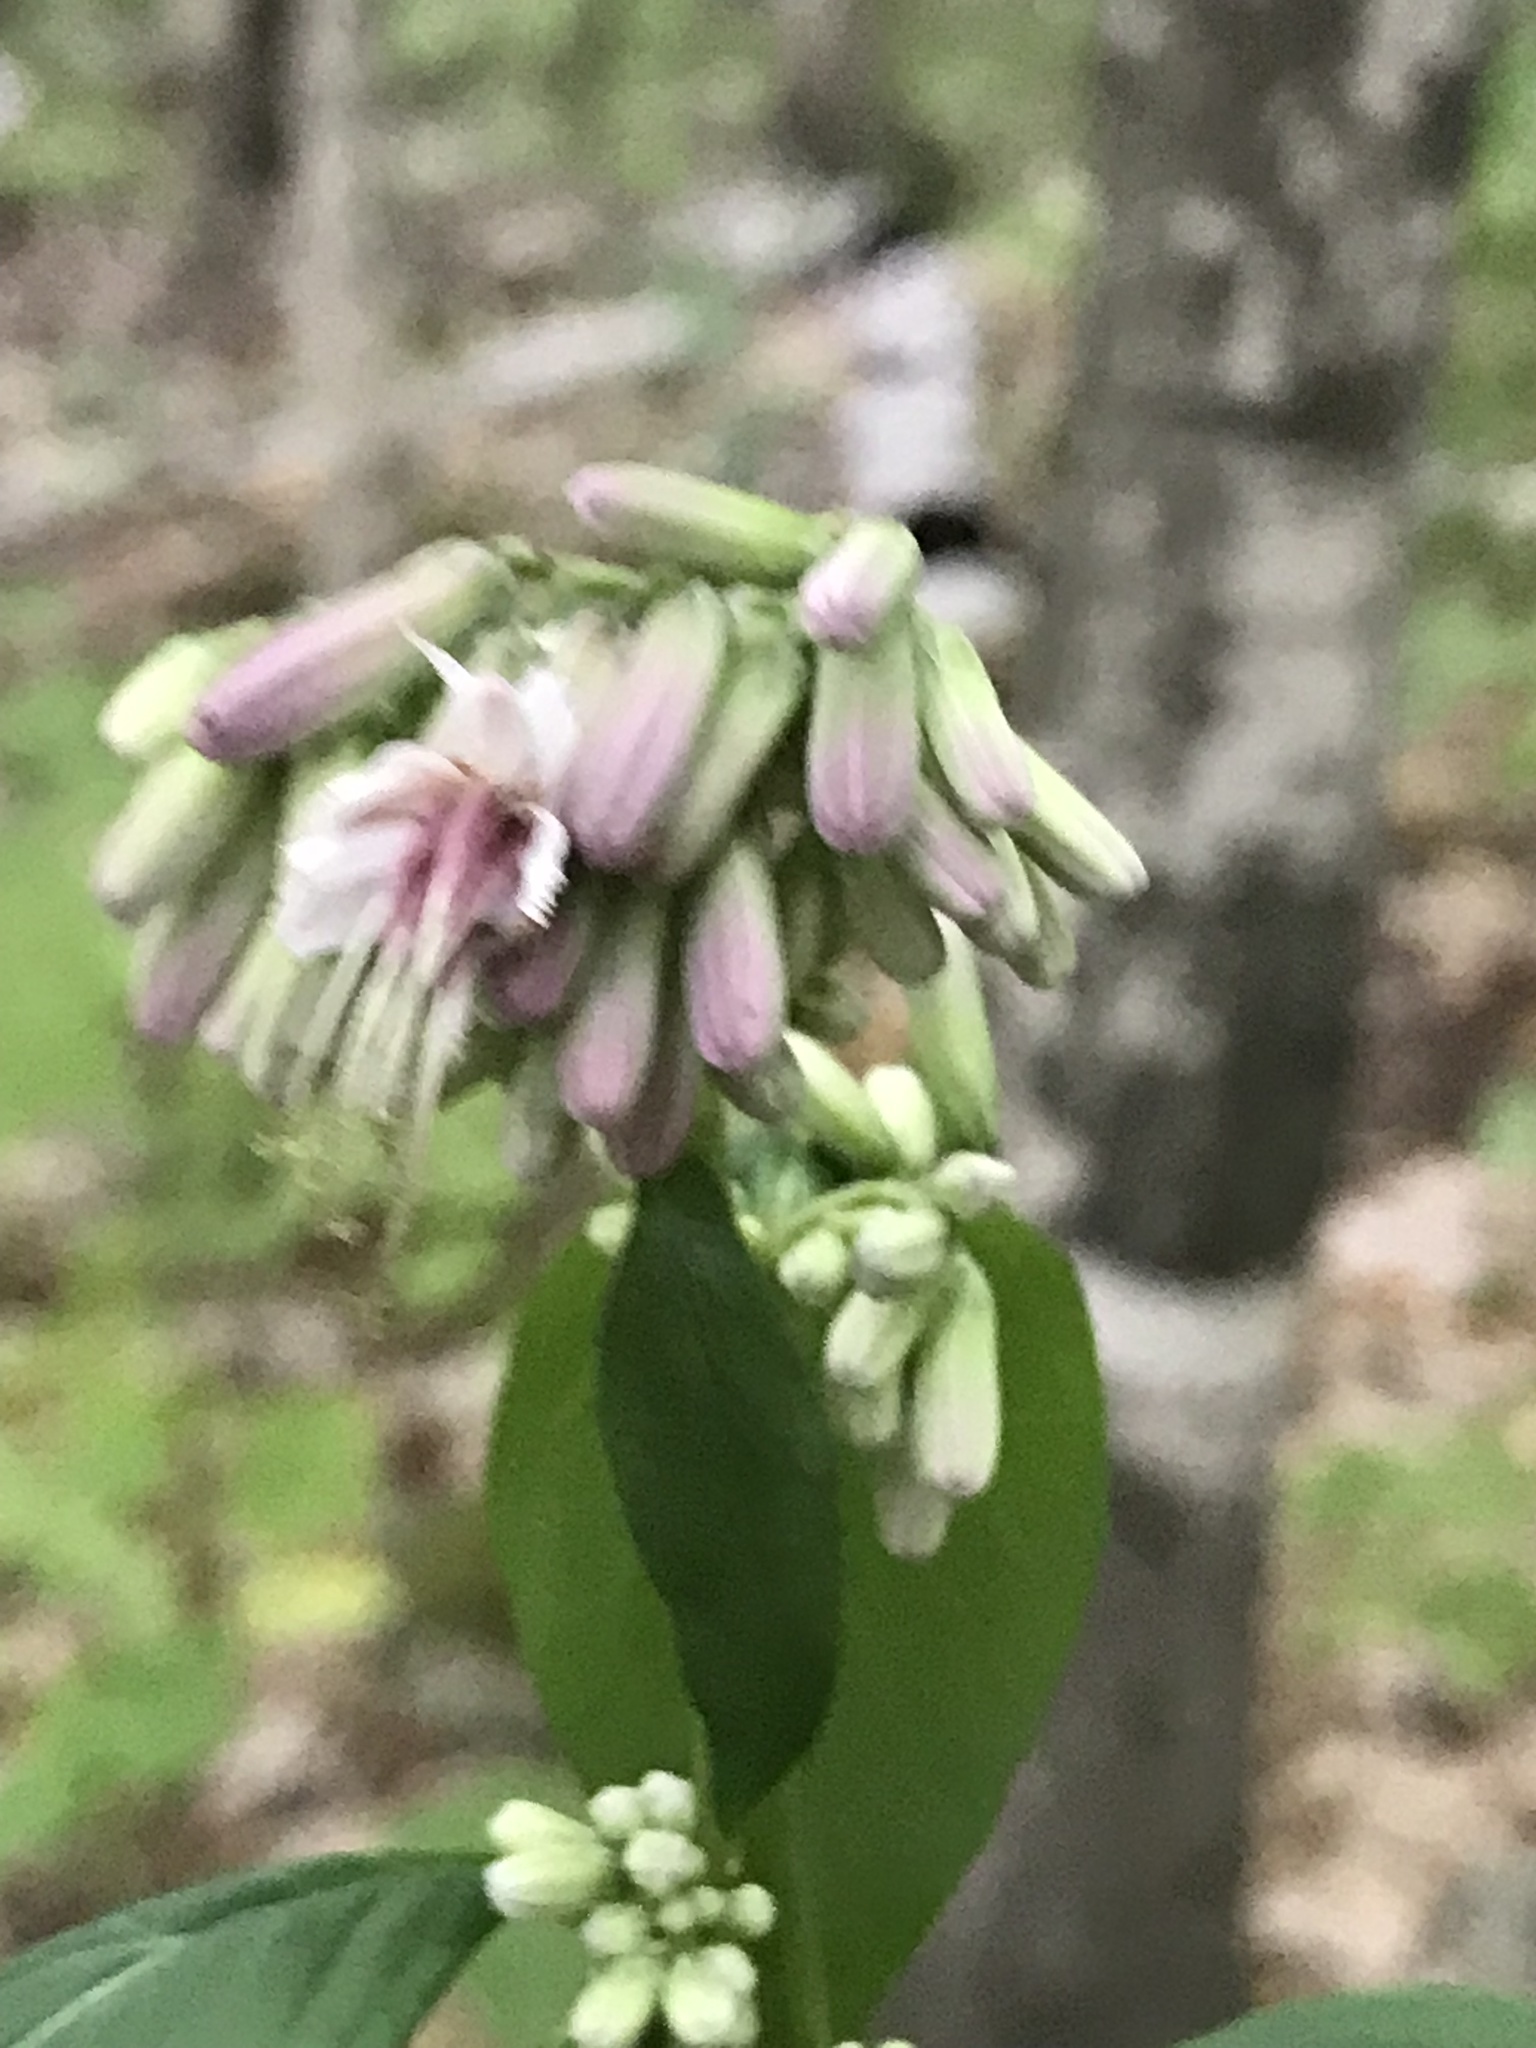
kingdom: Plantae
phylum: Tracheophyta
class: Magnoliopsida
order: Asterales
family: Asteraceae
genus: Nabalus
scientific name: Nabalus albus
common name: White rattlesnakeroot
